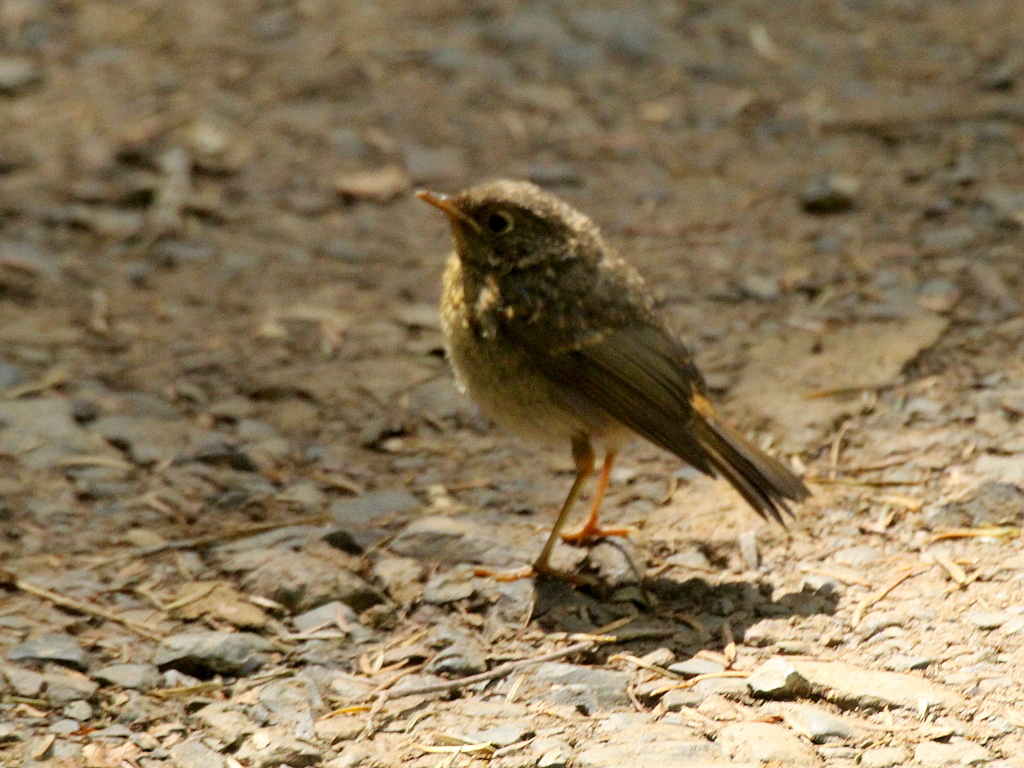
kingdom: Animalia
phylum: Chordata
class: Aves
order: Passeriformes
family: Muscicapidae
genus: Erithacus
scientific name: Erithacus rubecula
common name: European robin
